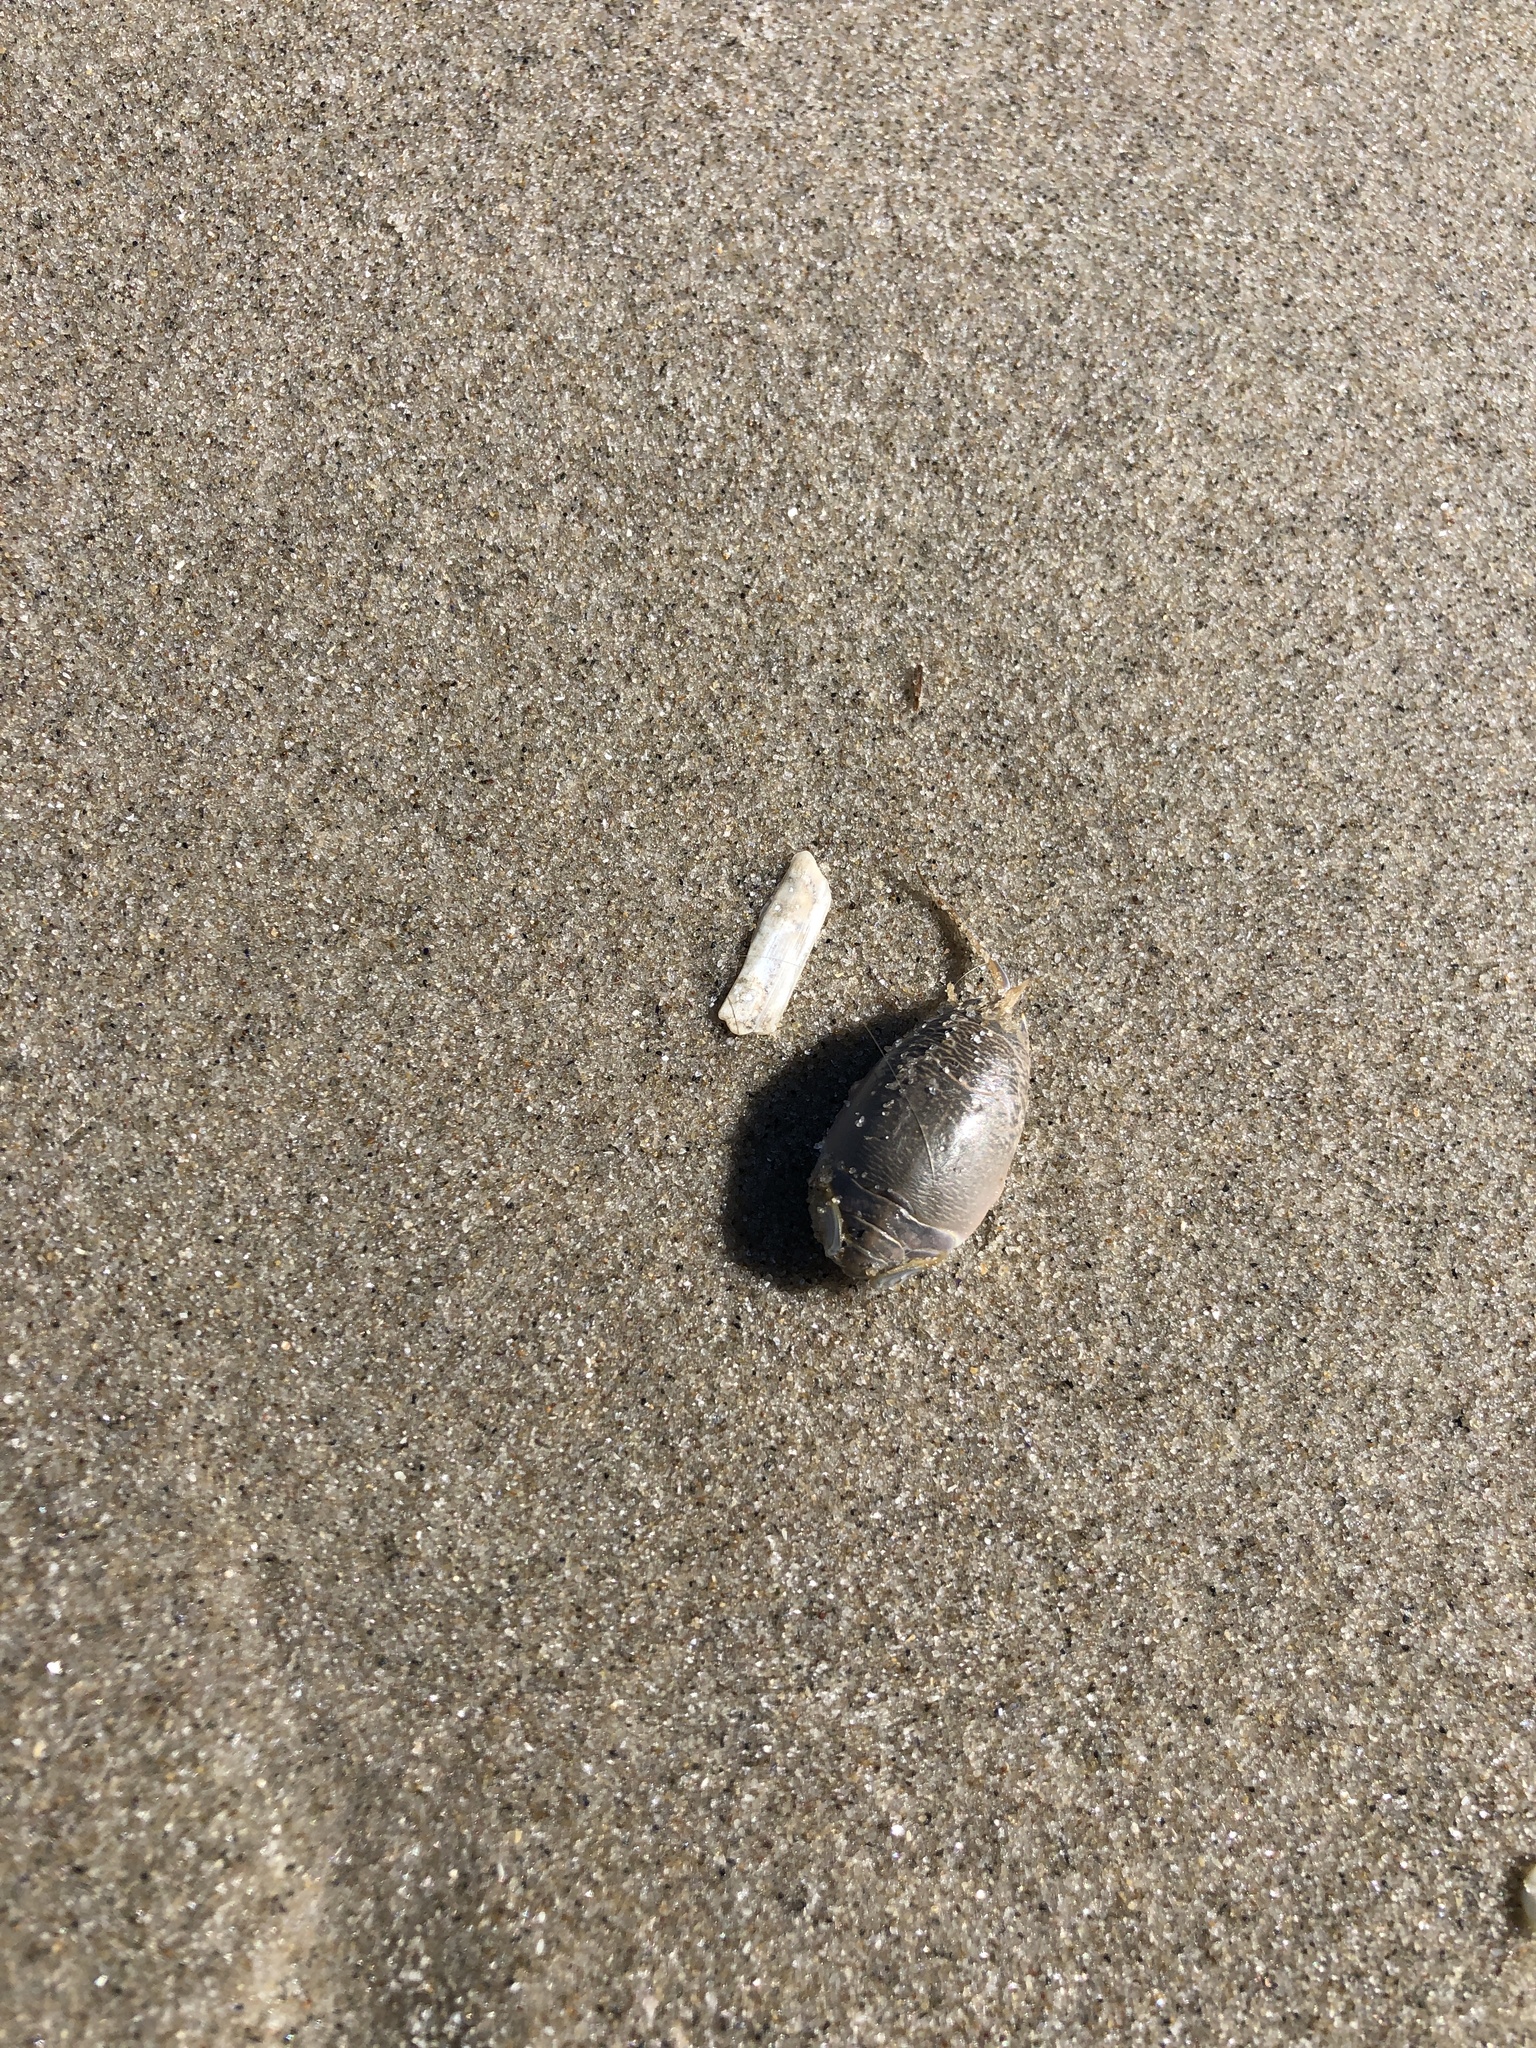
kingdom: Animalia
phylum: Arthropoda
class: Malacostraca
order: Decapoda
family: Hippidae
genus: Emerita
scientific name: Emerita talpoida
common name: Atlantic sand crab
